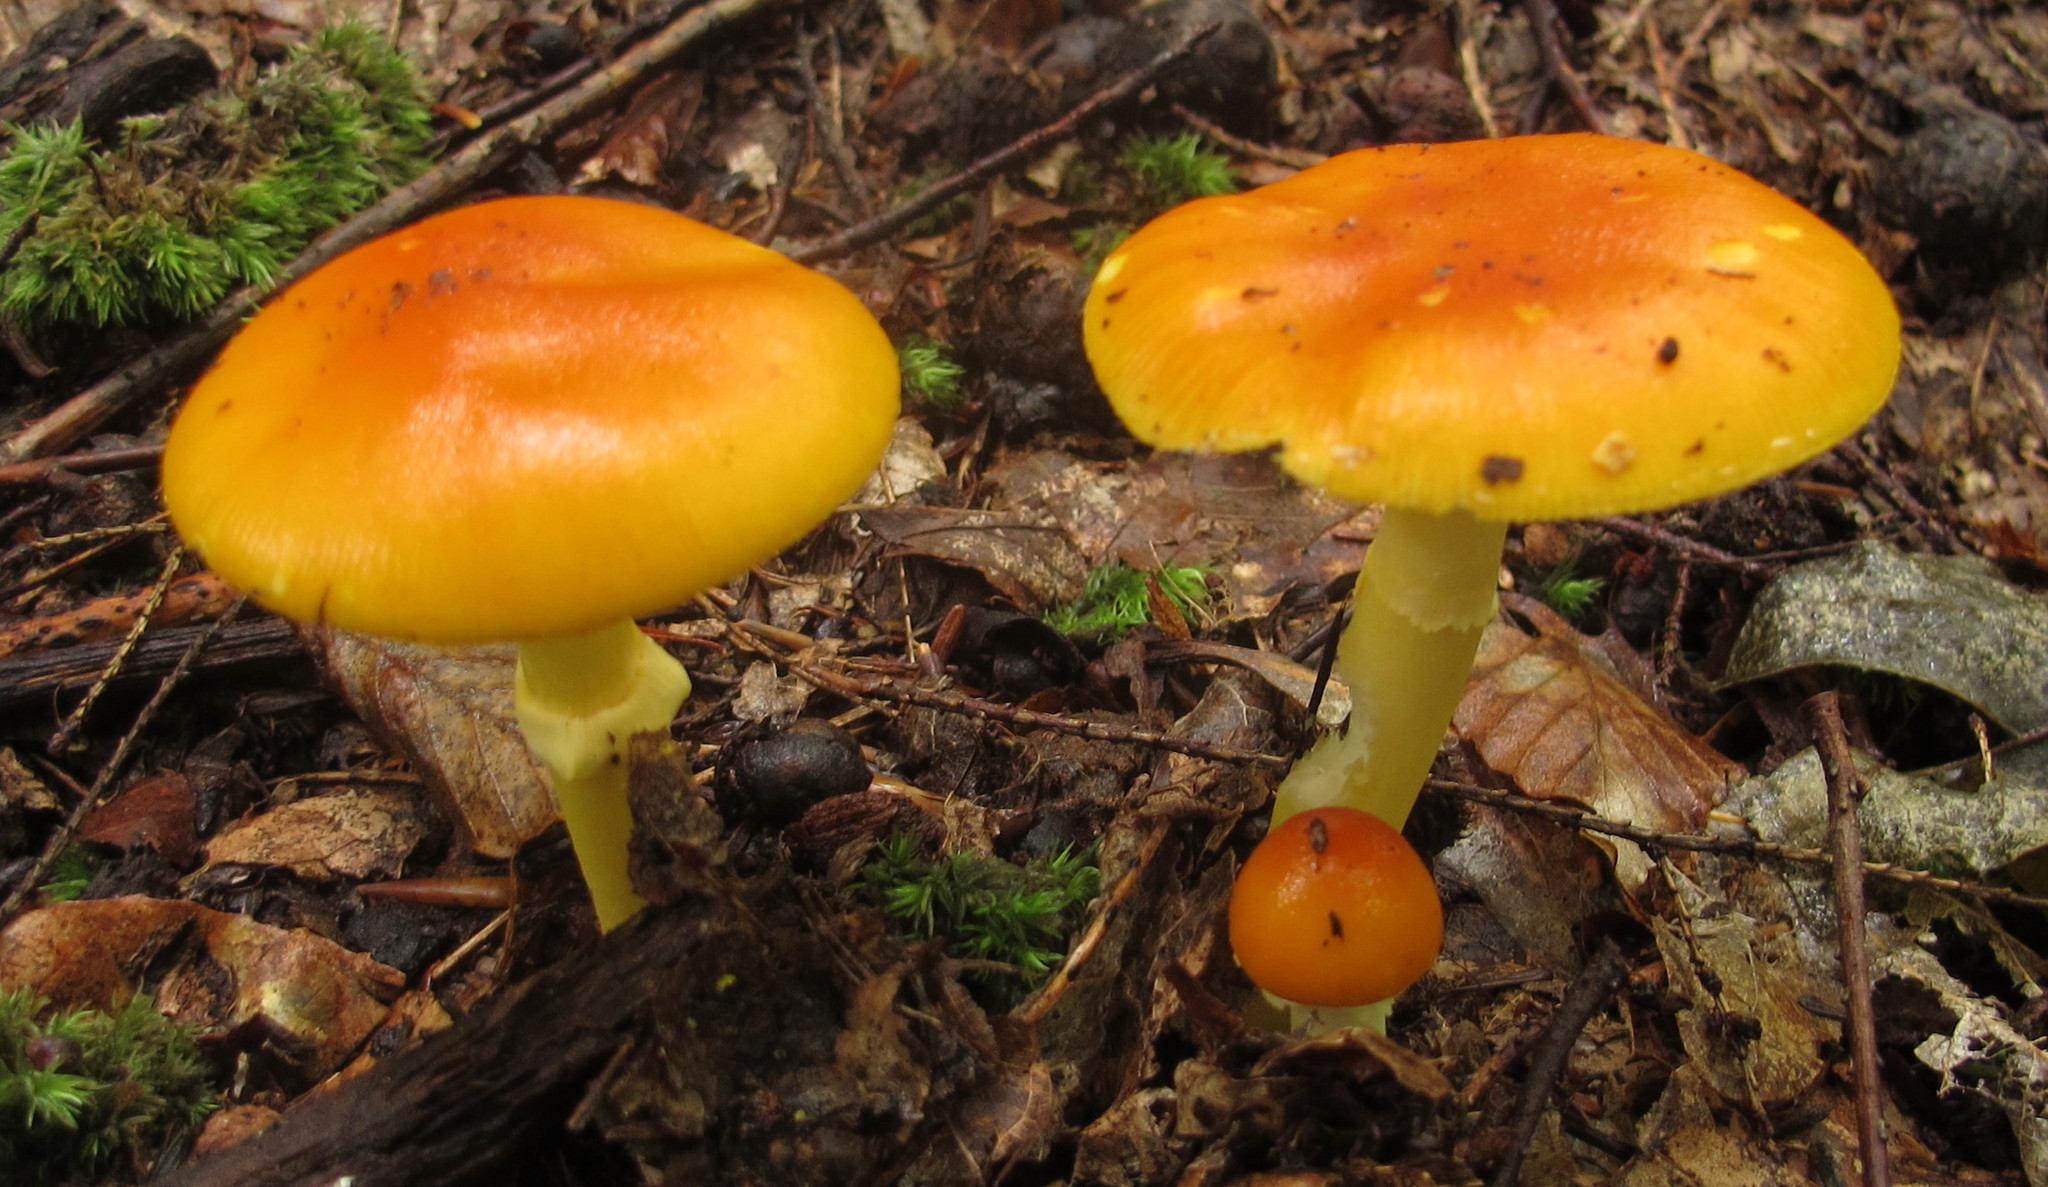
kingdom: Fungi
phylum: Basidiomycota
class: Agaricomycetes
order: Agaricales
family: Amanitaceae
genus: Amanita
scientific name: Amanita flavoconia
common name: Yellow patches
